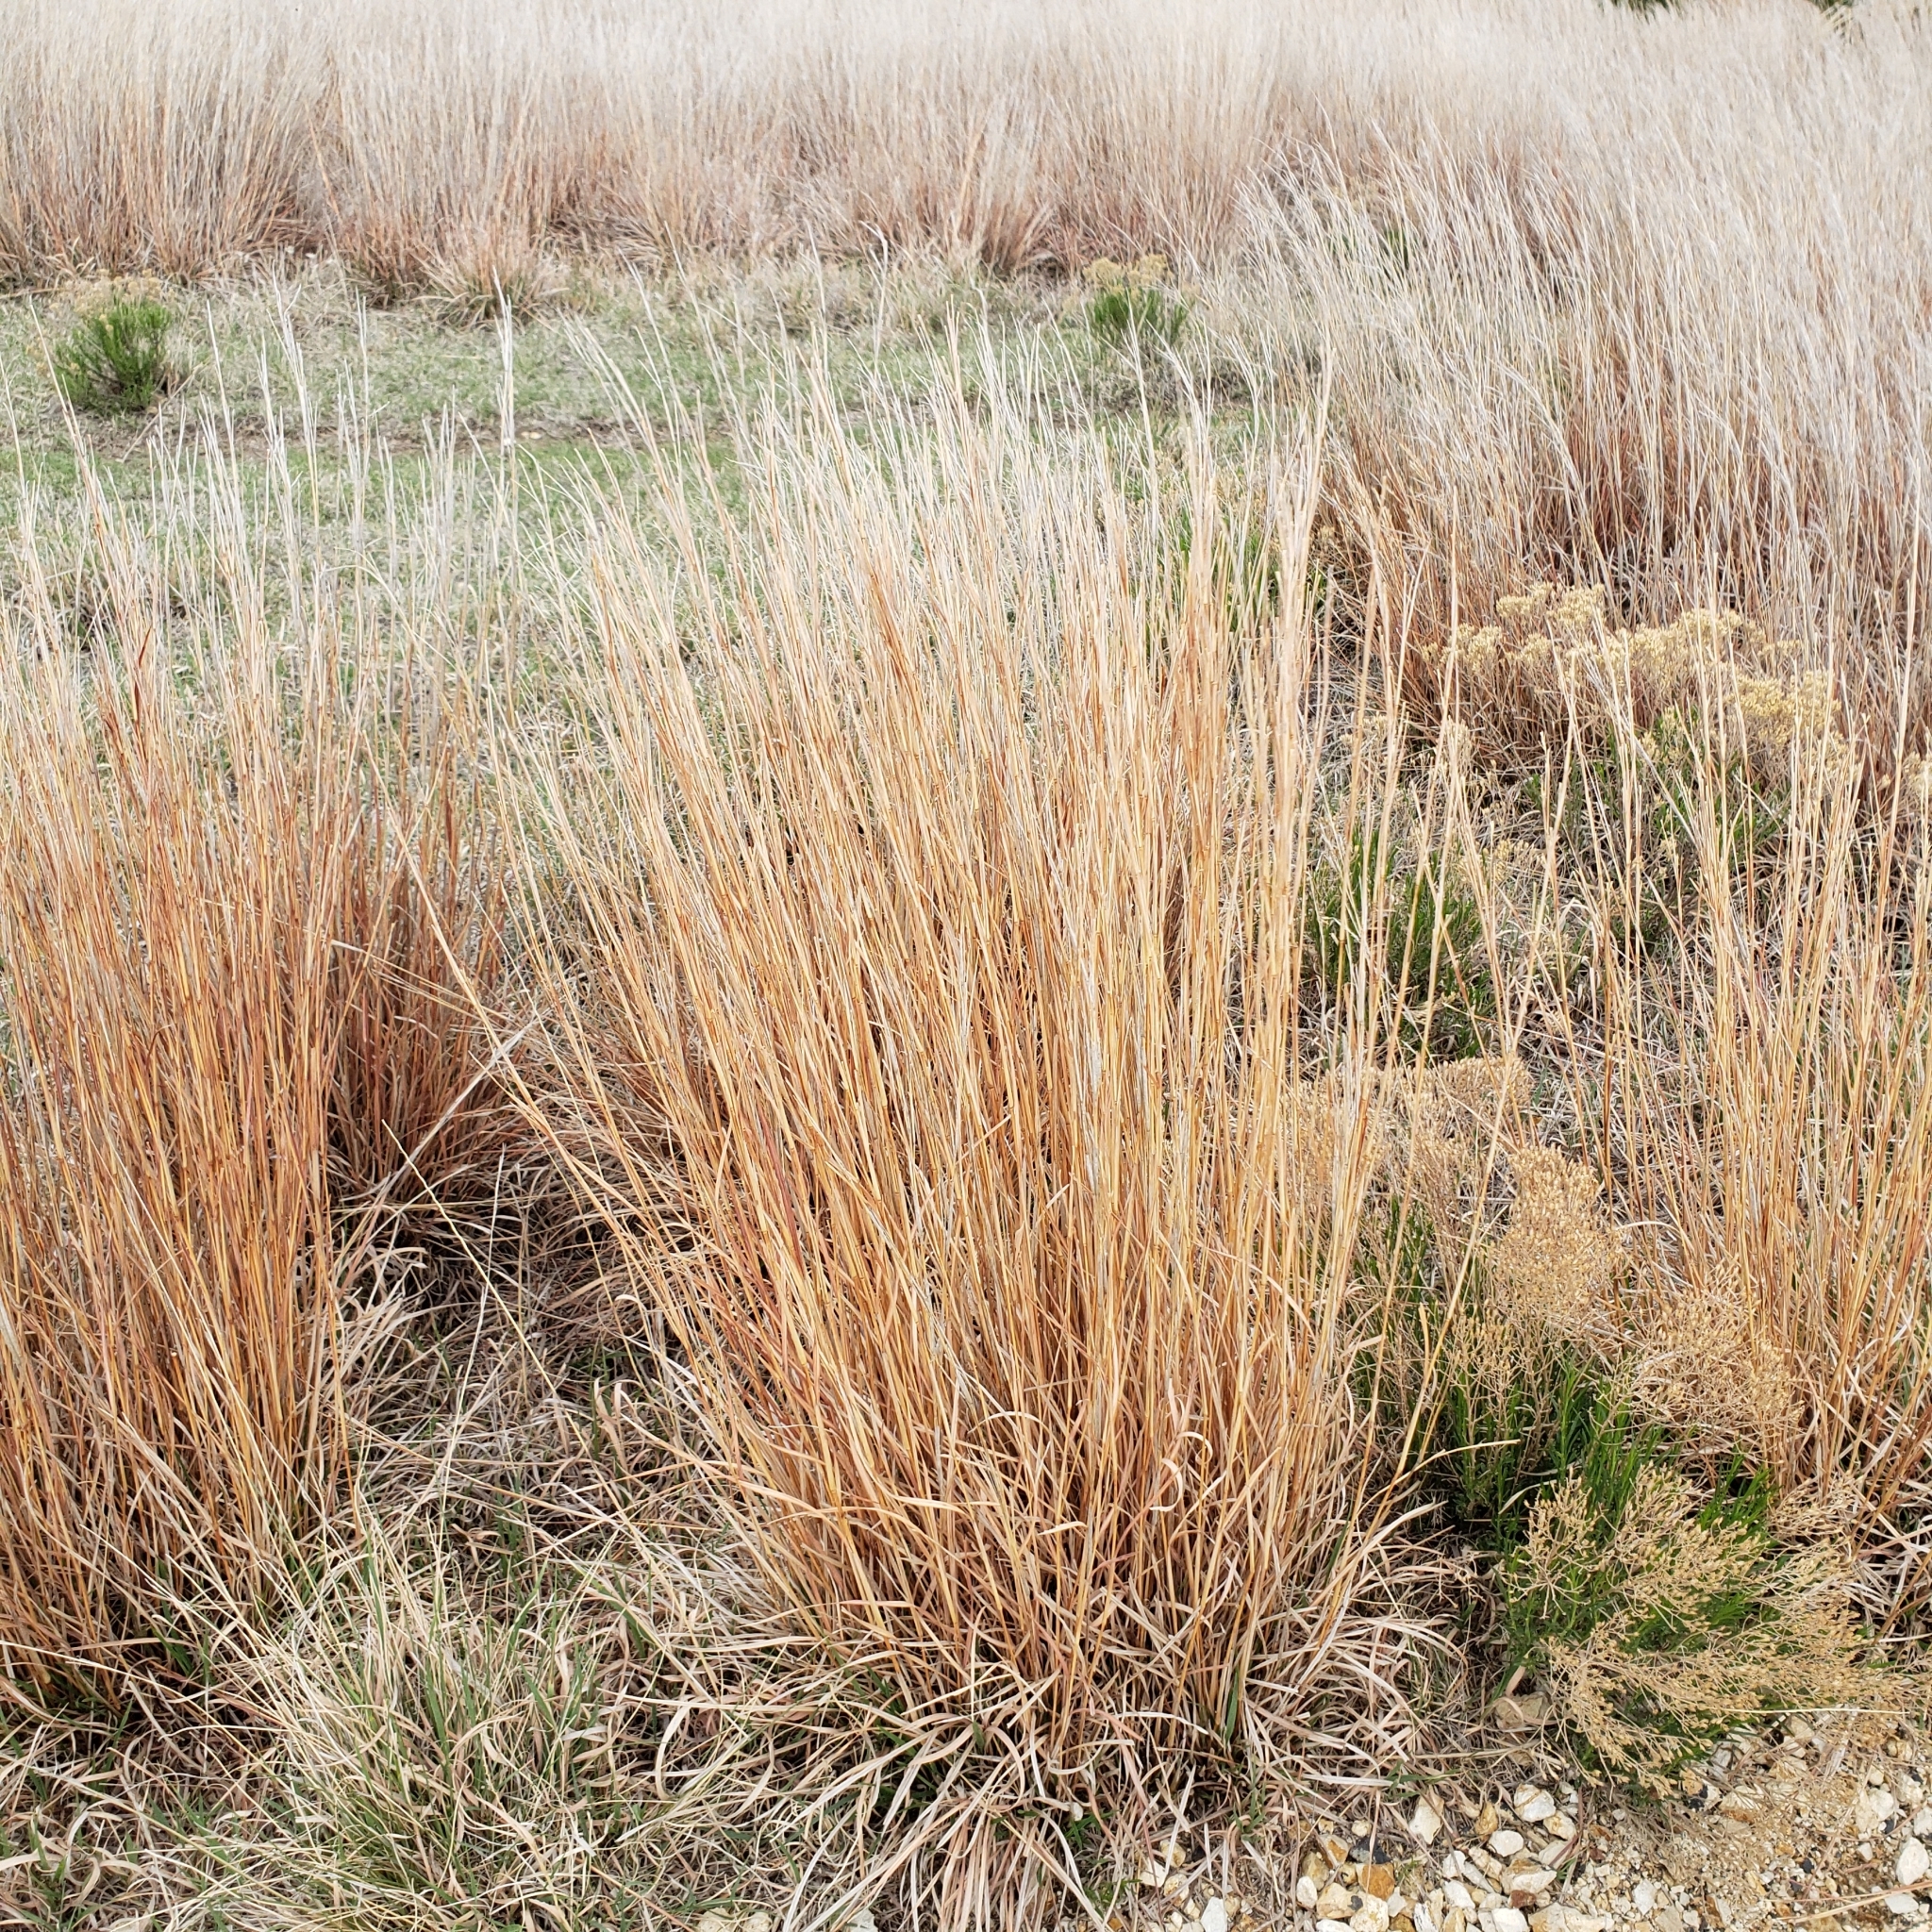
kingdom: Plantae
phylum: Tracheophyta
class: Liliopsida
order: Poales
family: Poaceae
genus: Schizachyrium
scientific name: Schizachyrium scoparium
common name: Little bluestem
